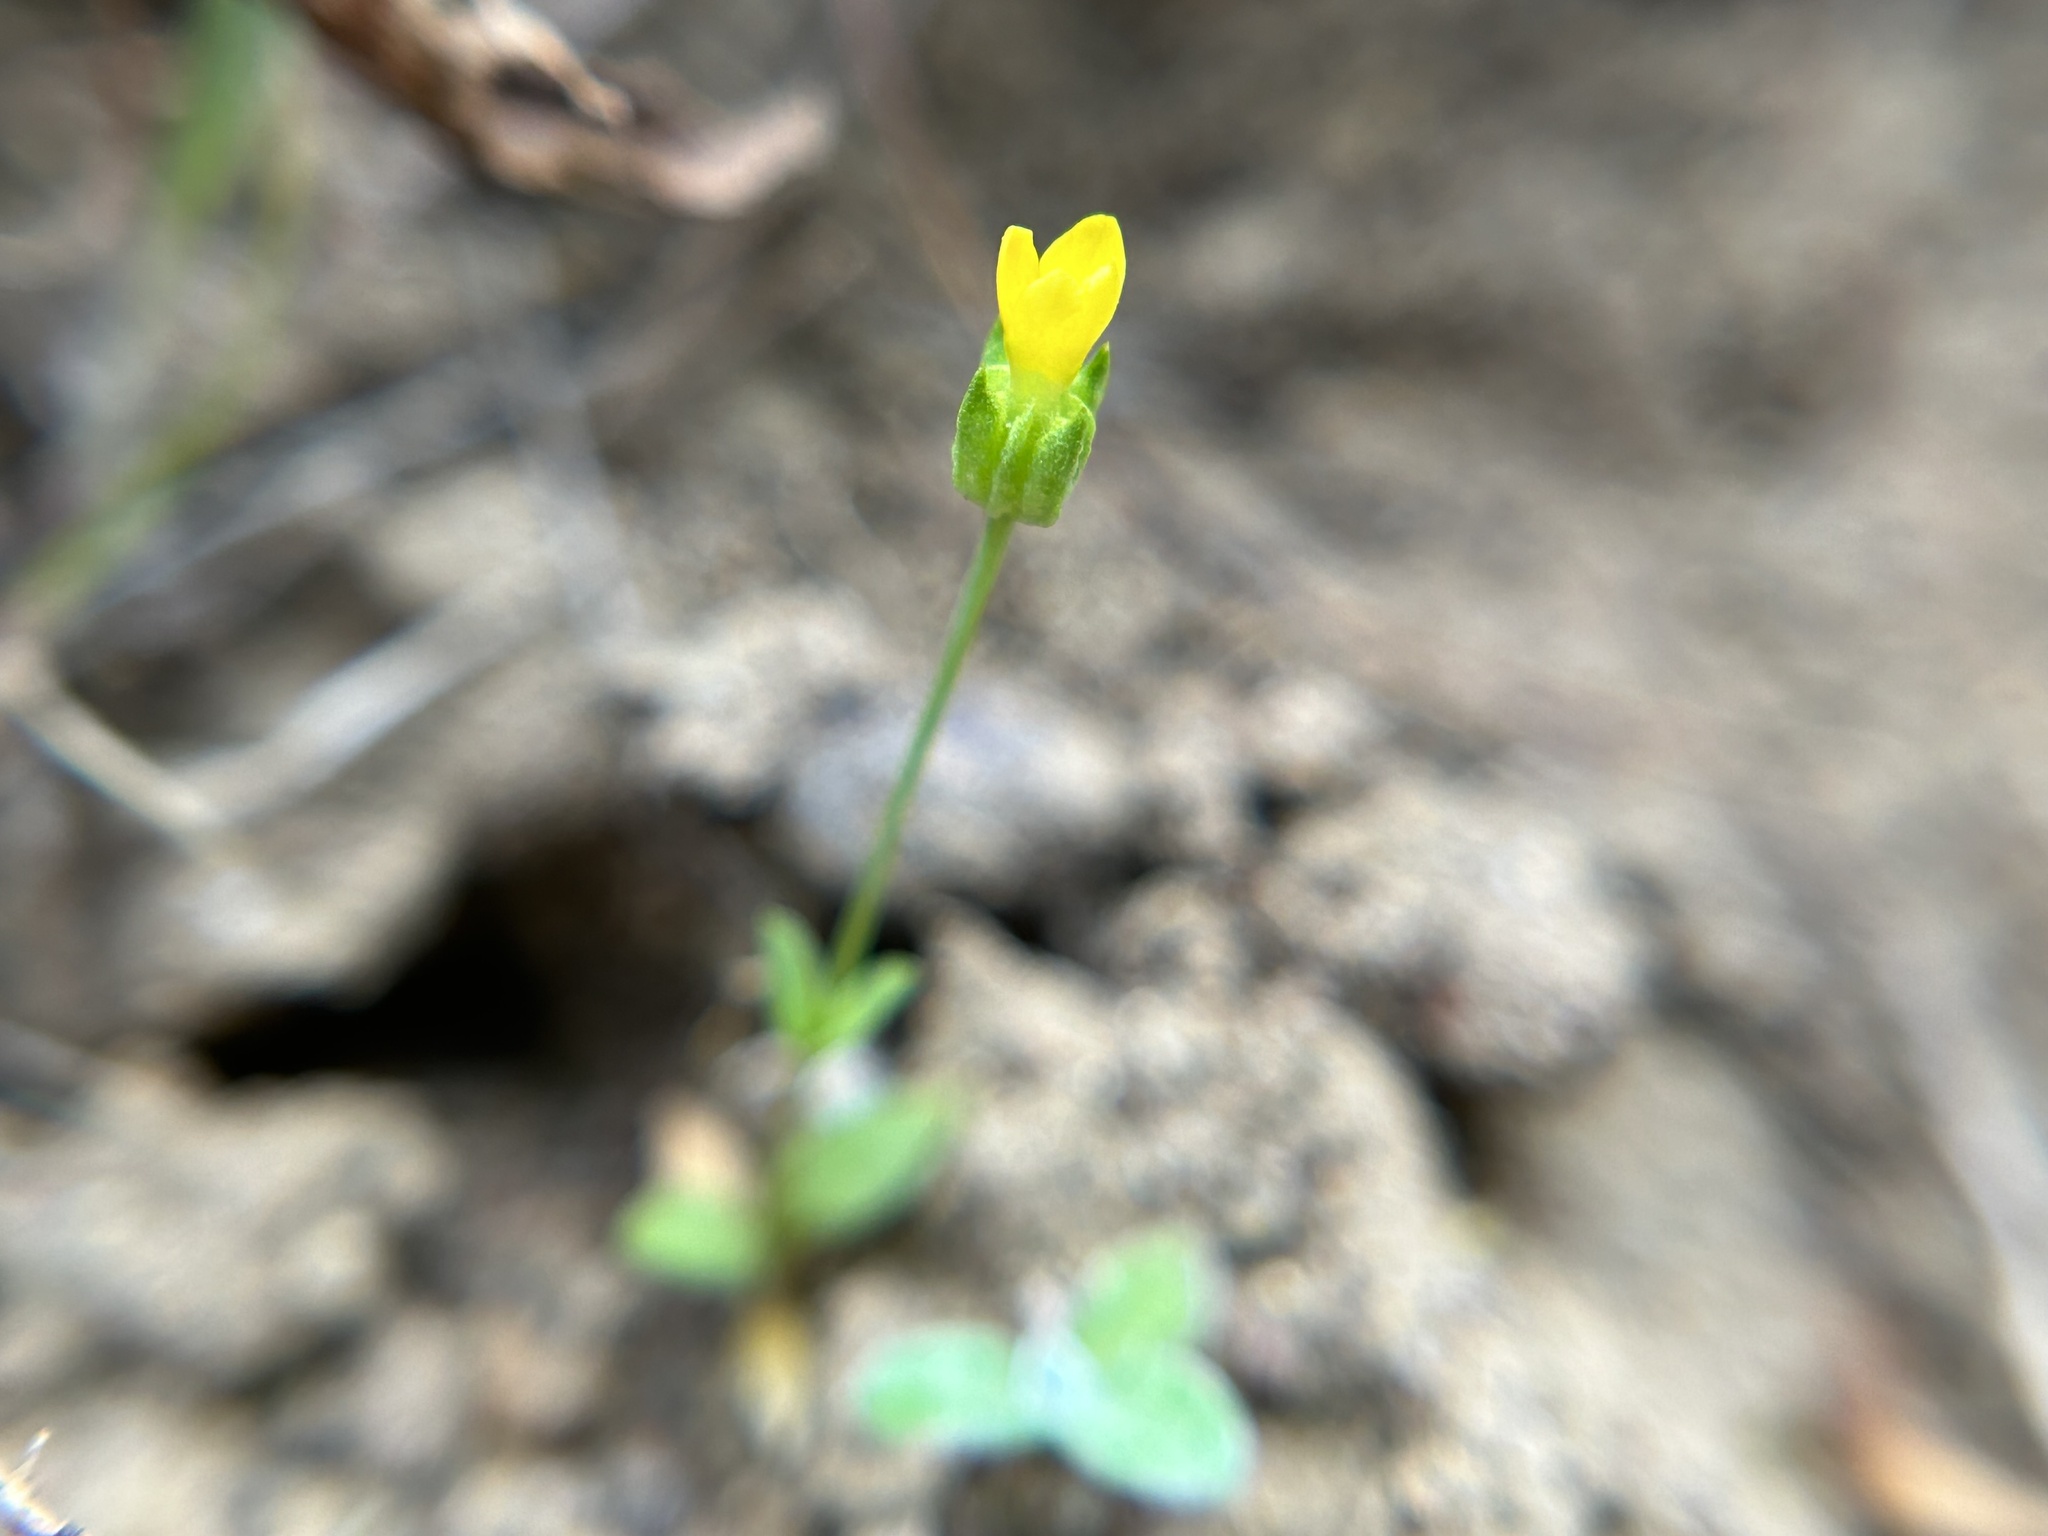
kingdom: Plantae
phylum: Tracheophyta
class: Magnoliopsida
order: Gentianales
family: Gentianaceae
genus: Microcala
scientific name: Microcala quadrangularis
